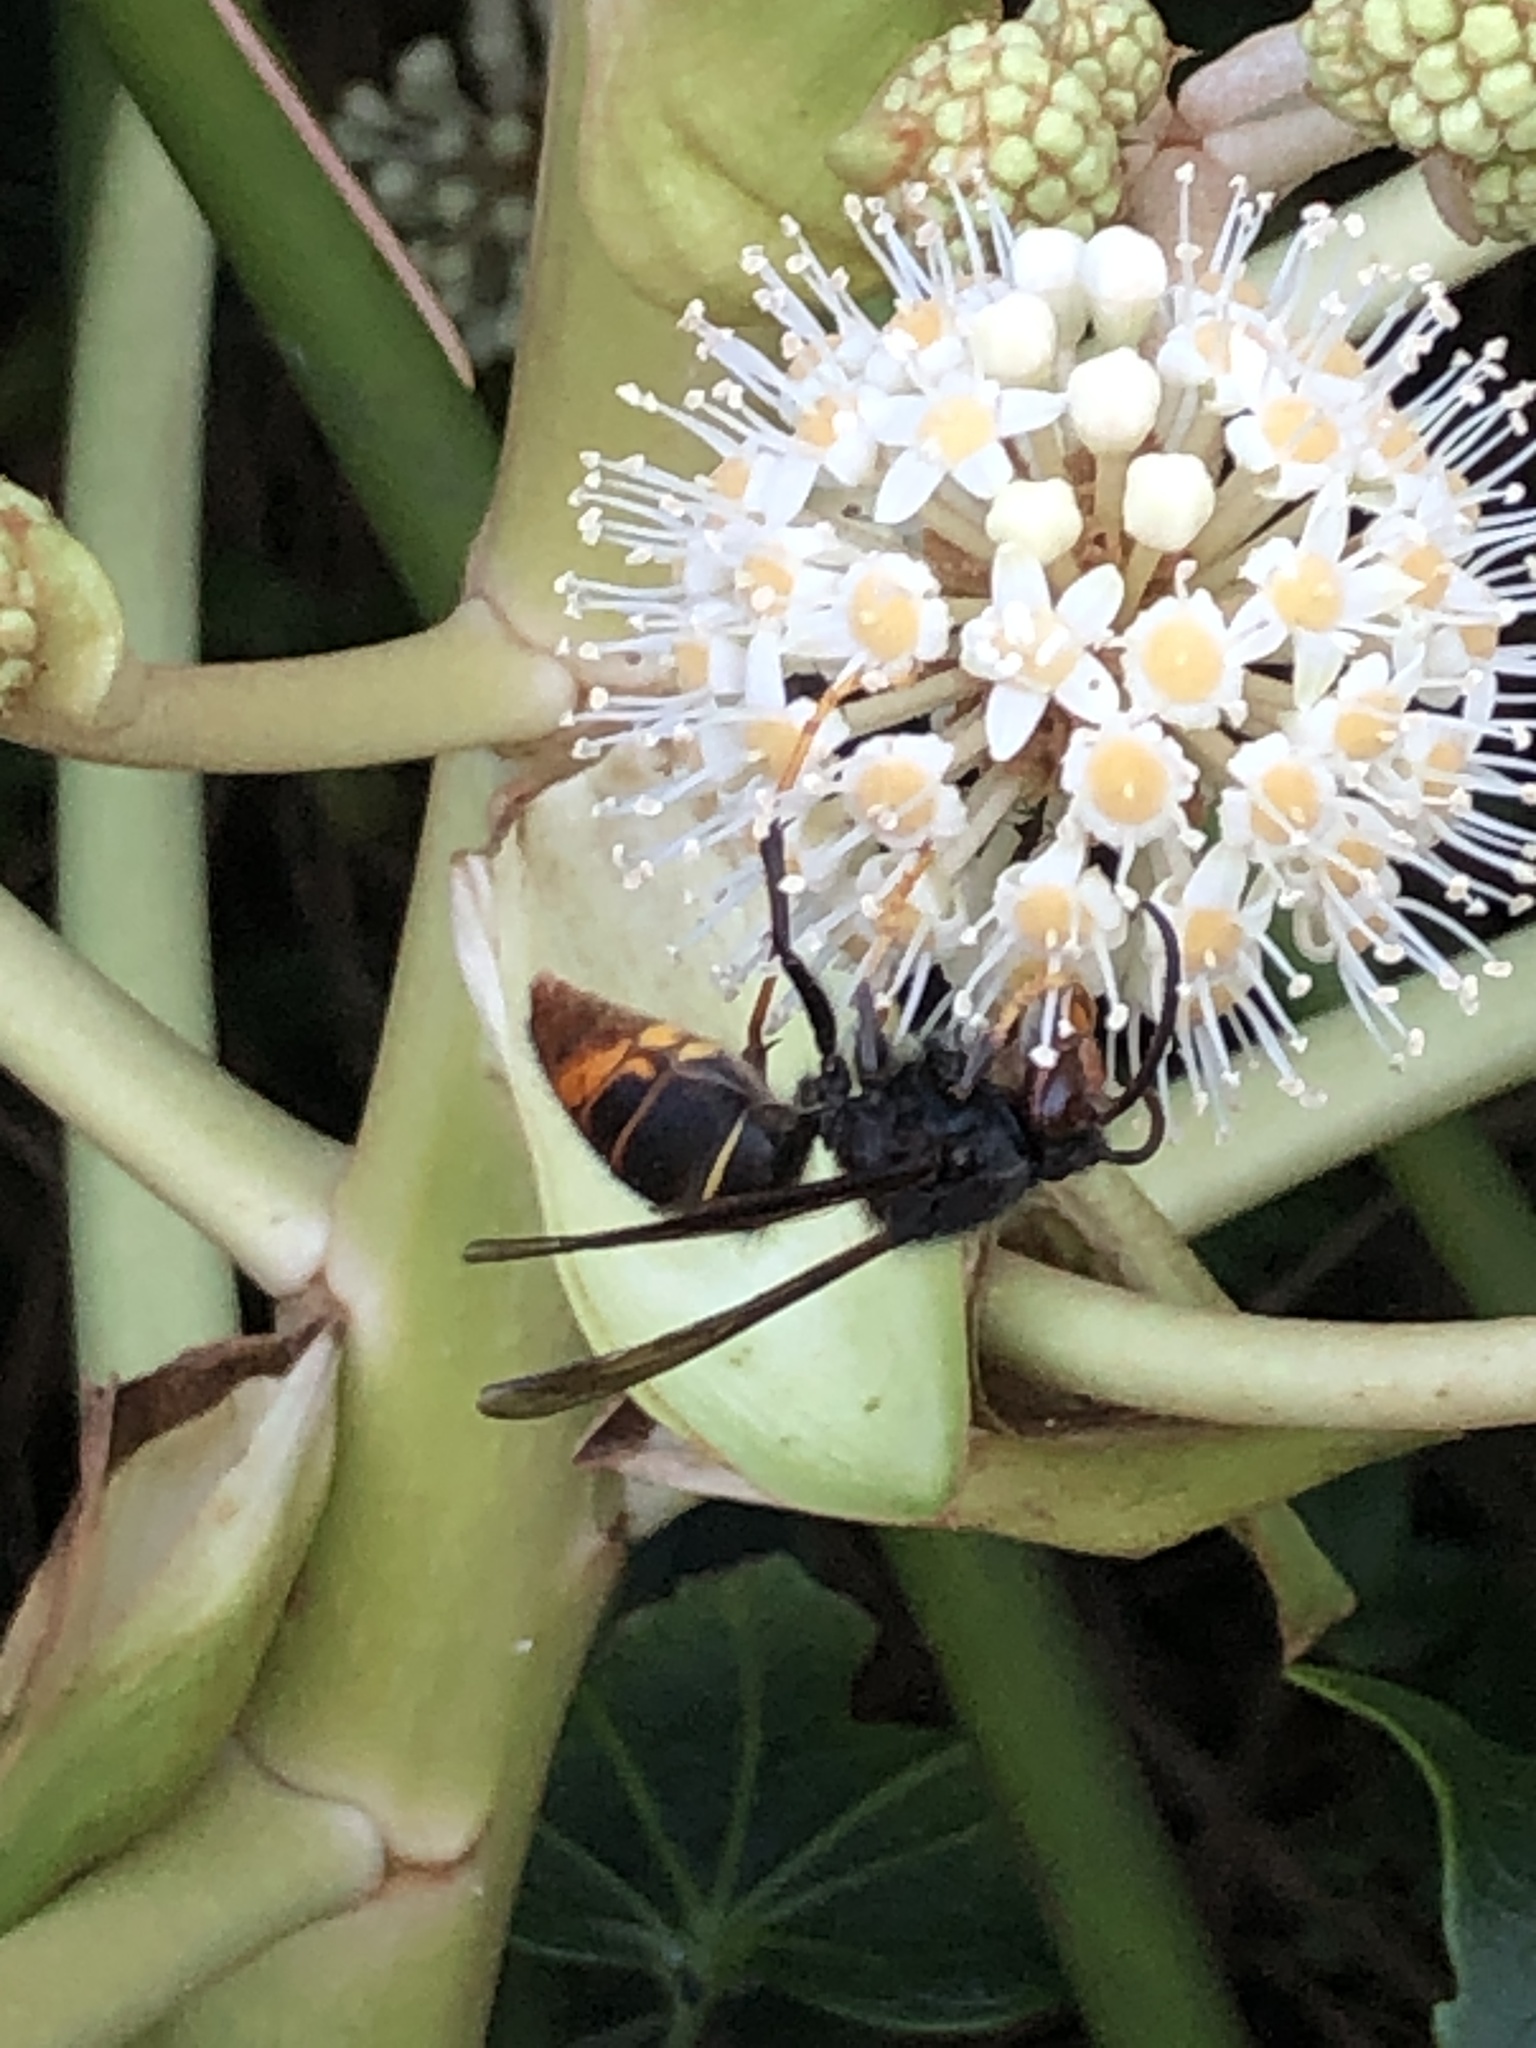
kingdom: Animalia
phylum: Arthropoda
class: Insecta
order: Hymenoptera
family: Vespidae
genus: Vespa
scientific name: Vespa velutina
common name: Asian hornet
